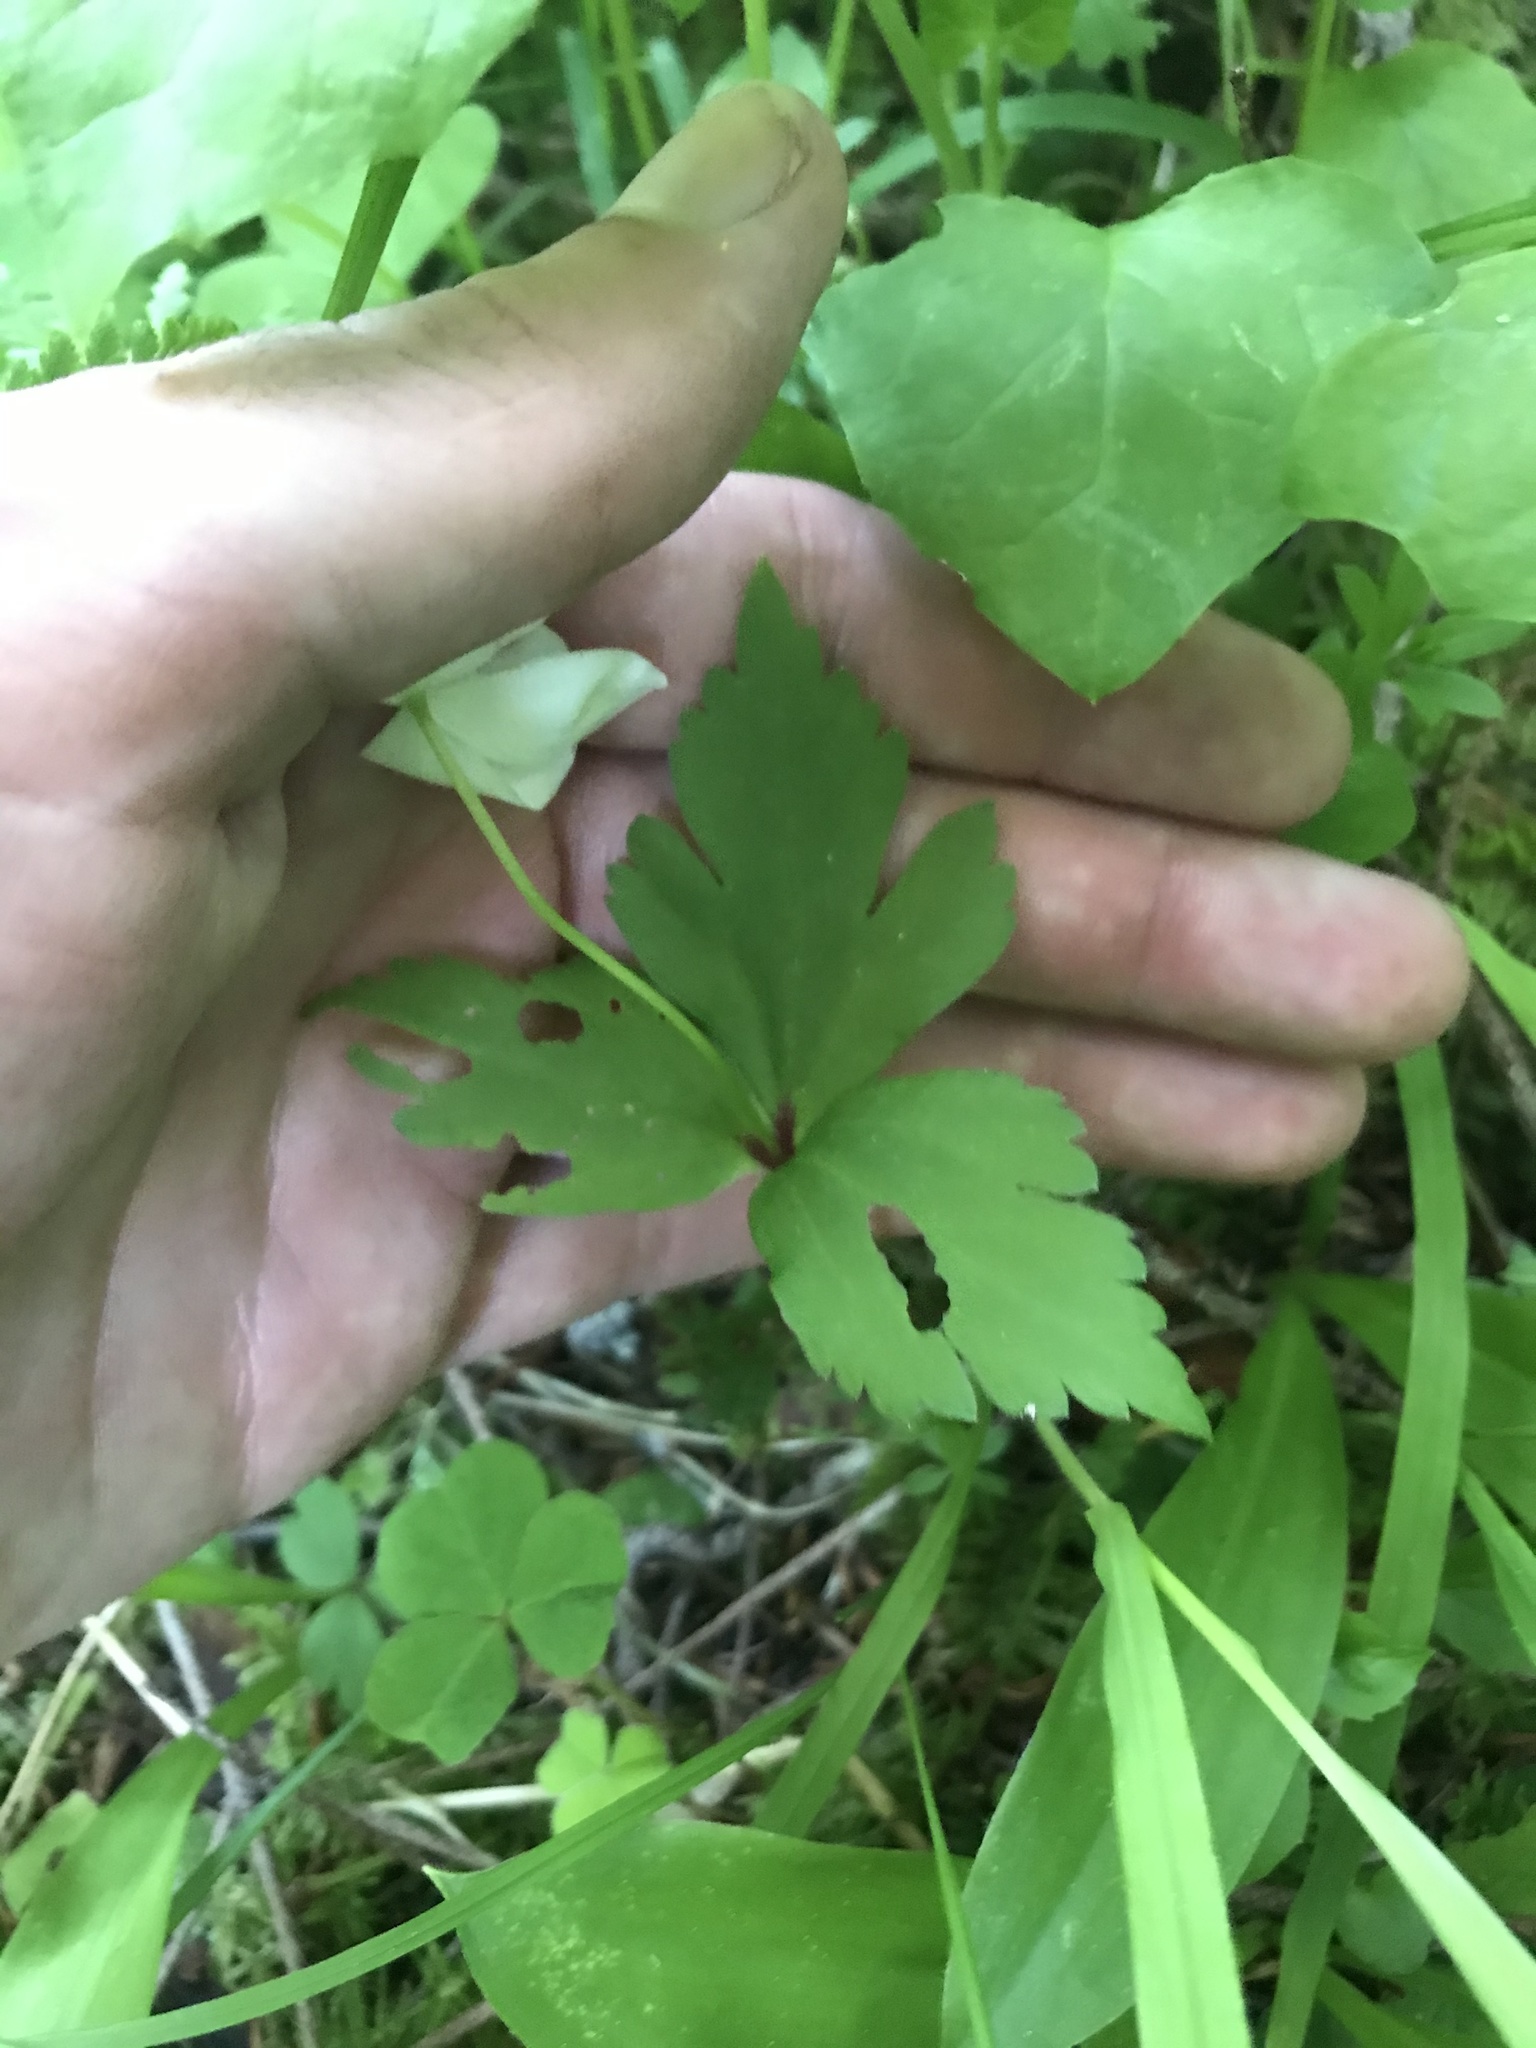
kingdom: Plantae
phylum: Tracheophyta
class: Magnoliopsida
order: Ranunculales
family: Ranunculaceae
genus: Anemonastrum
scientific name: Anemonastrum deltoideum
